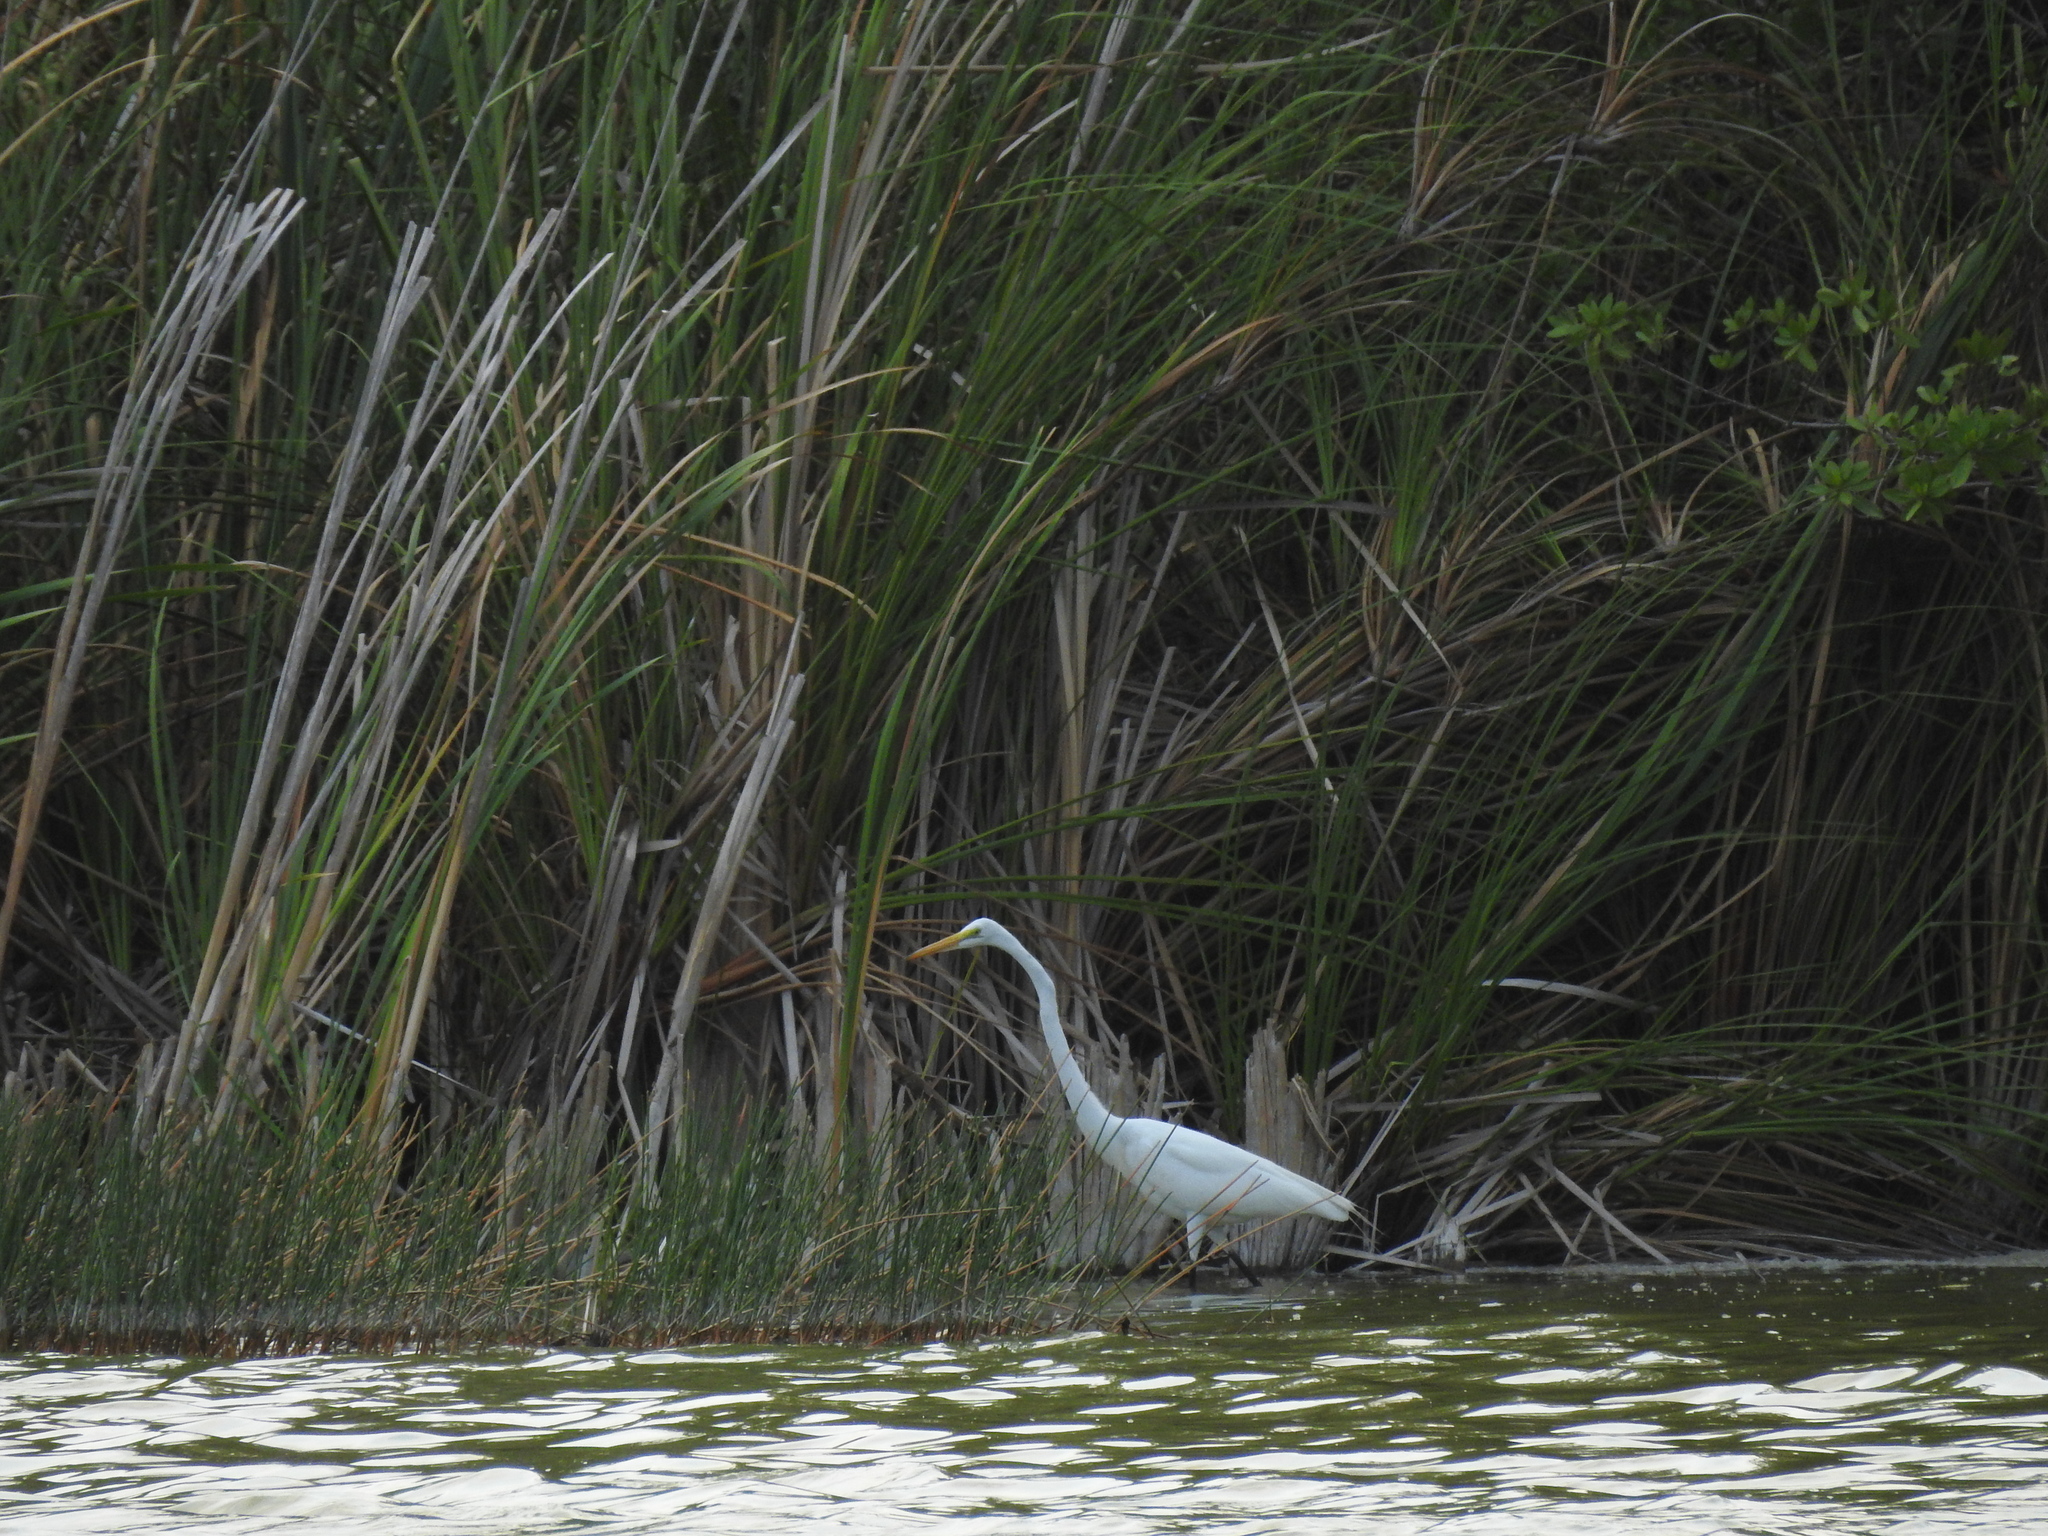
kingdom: Animalia
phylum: Chordata
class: Aves
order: Pelecaniformes
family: Ardeidae
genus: Ardea
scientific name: Ardea alba
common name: Great egret
